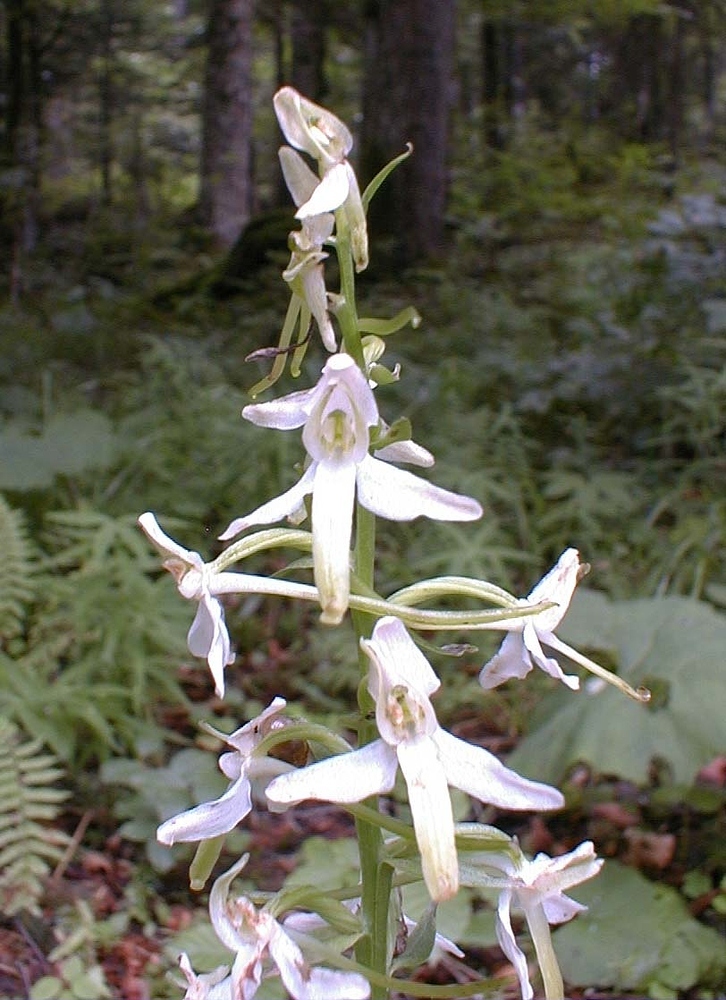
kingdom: Plantae
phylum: Tracheophyta
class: Liliopsida
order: Asparagales
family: Orchidaceae
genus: Platanthera
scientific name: Platanthera bifolia
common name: Lesser butterfly-orchid
